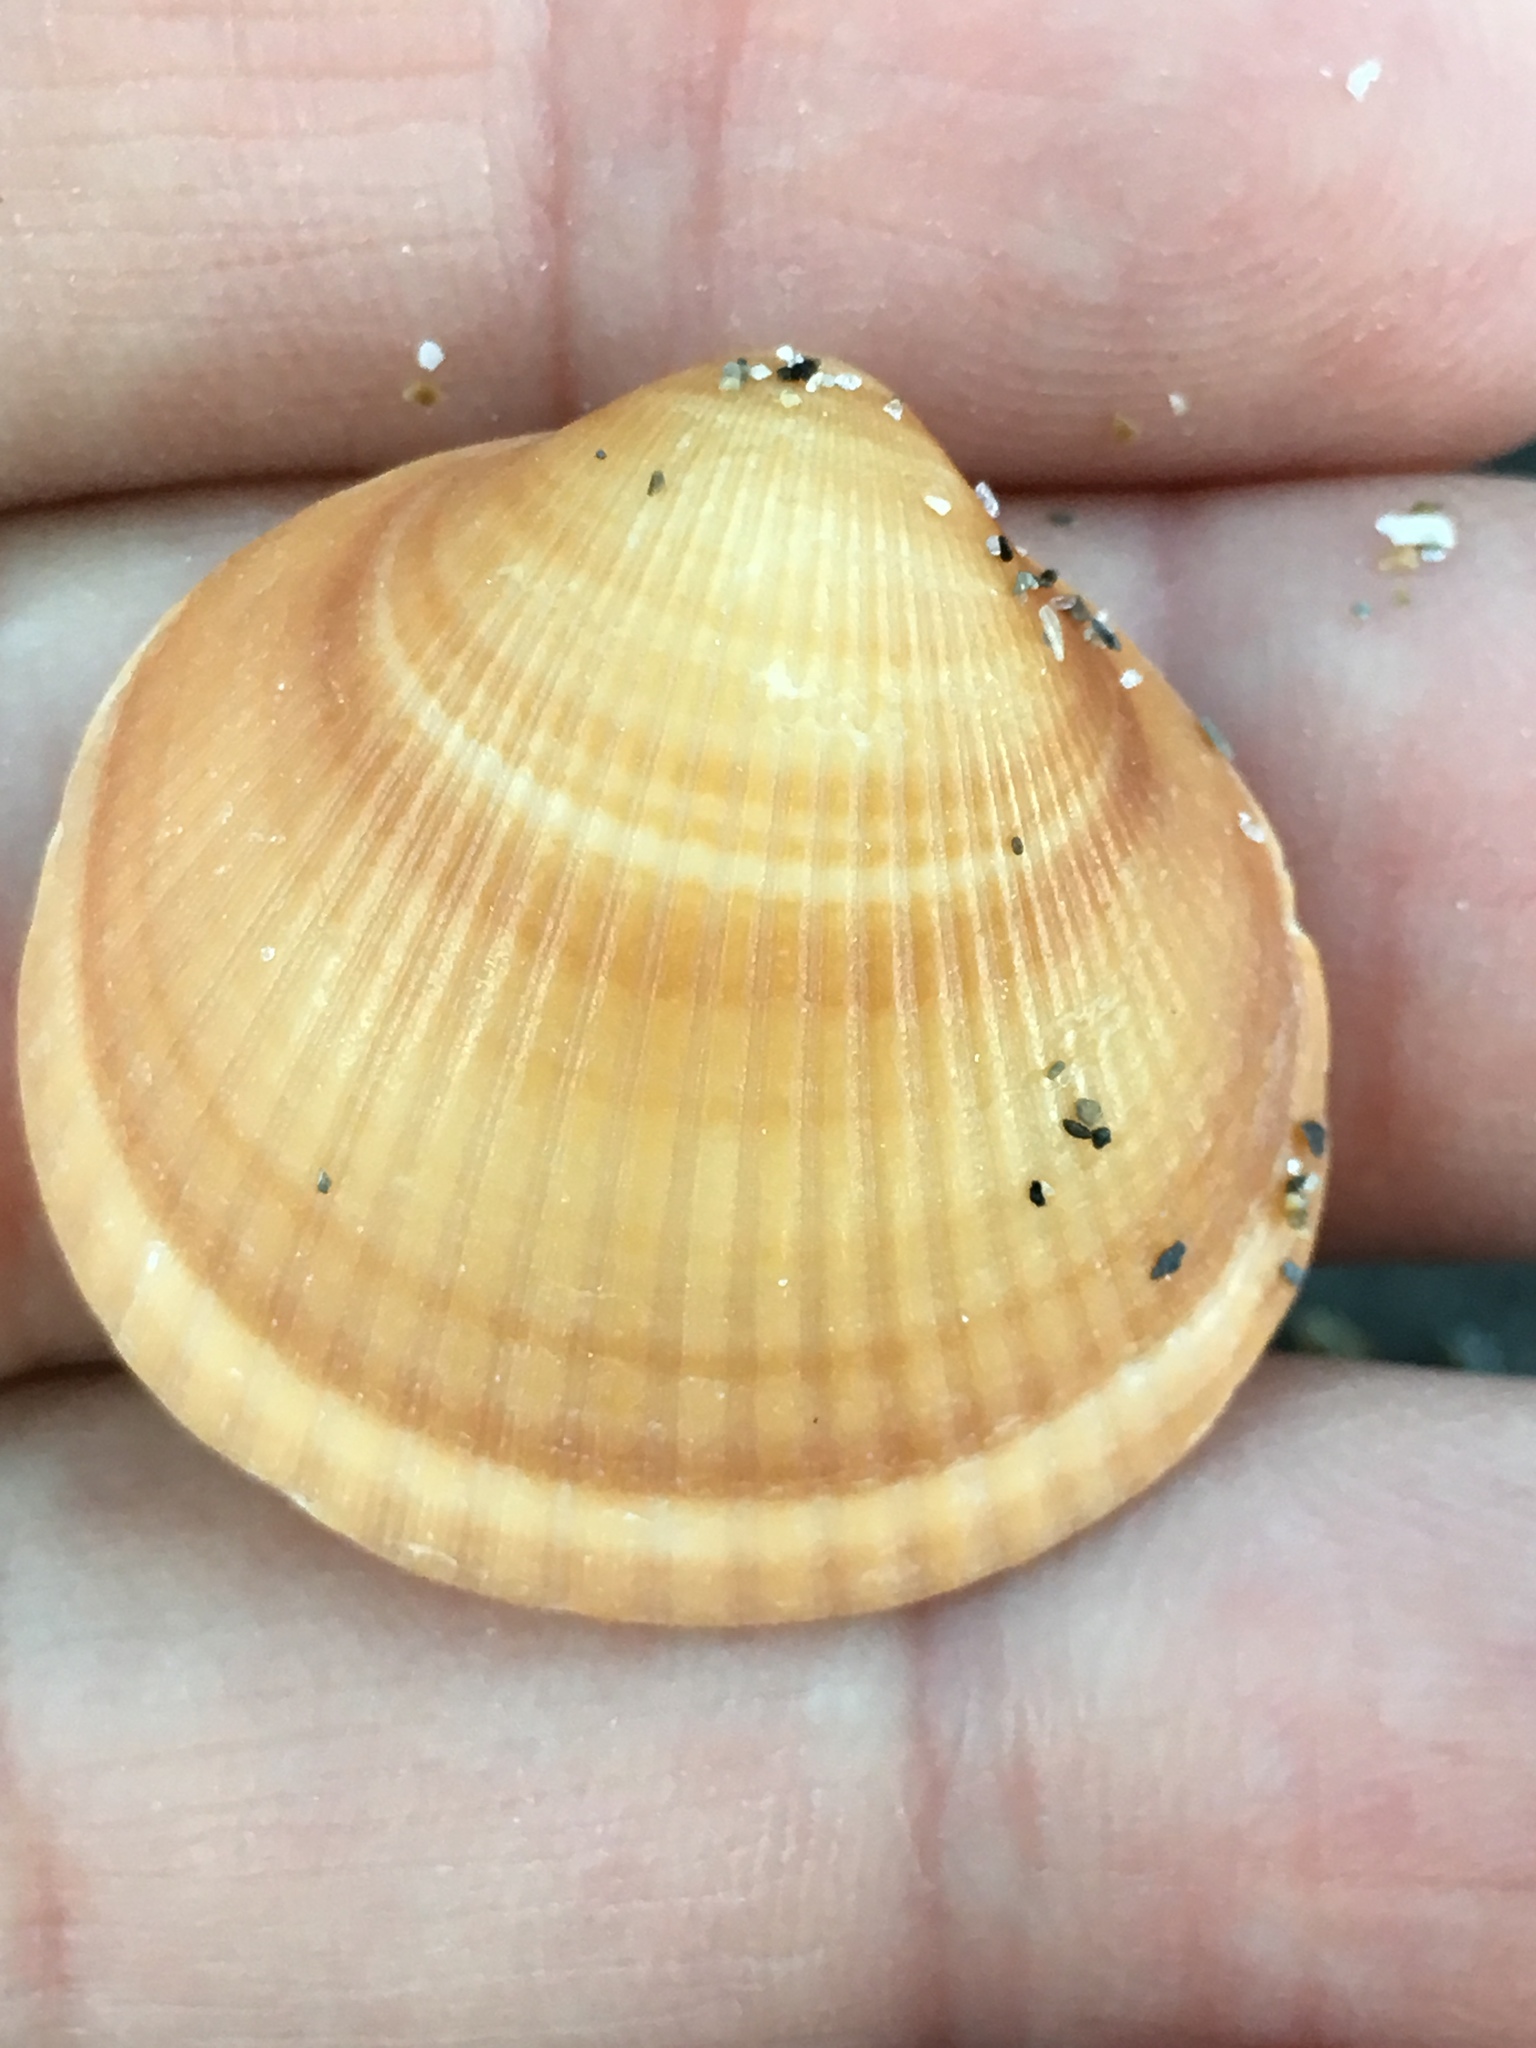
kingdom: Animalia
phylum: Mollusca
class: Bivalvia
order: Arcida
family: Glycymerididae
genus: Glycymeris
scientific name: Glycymeris spectralis
